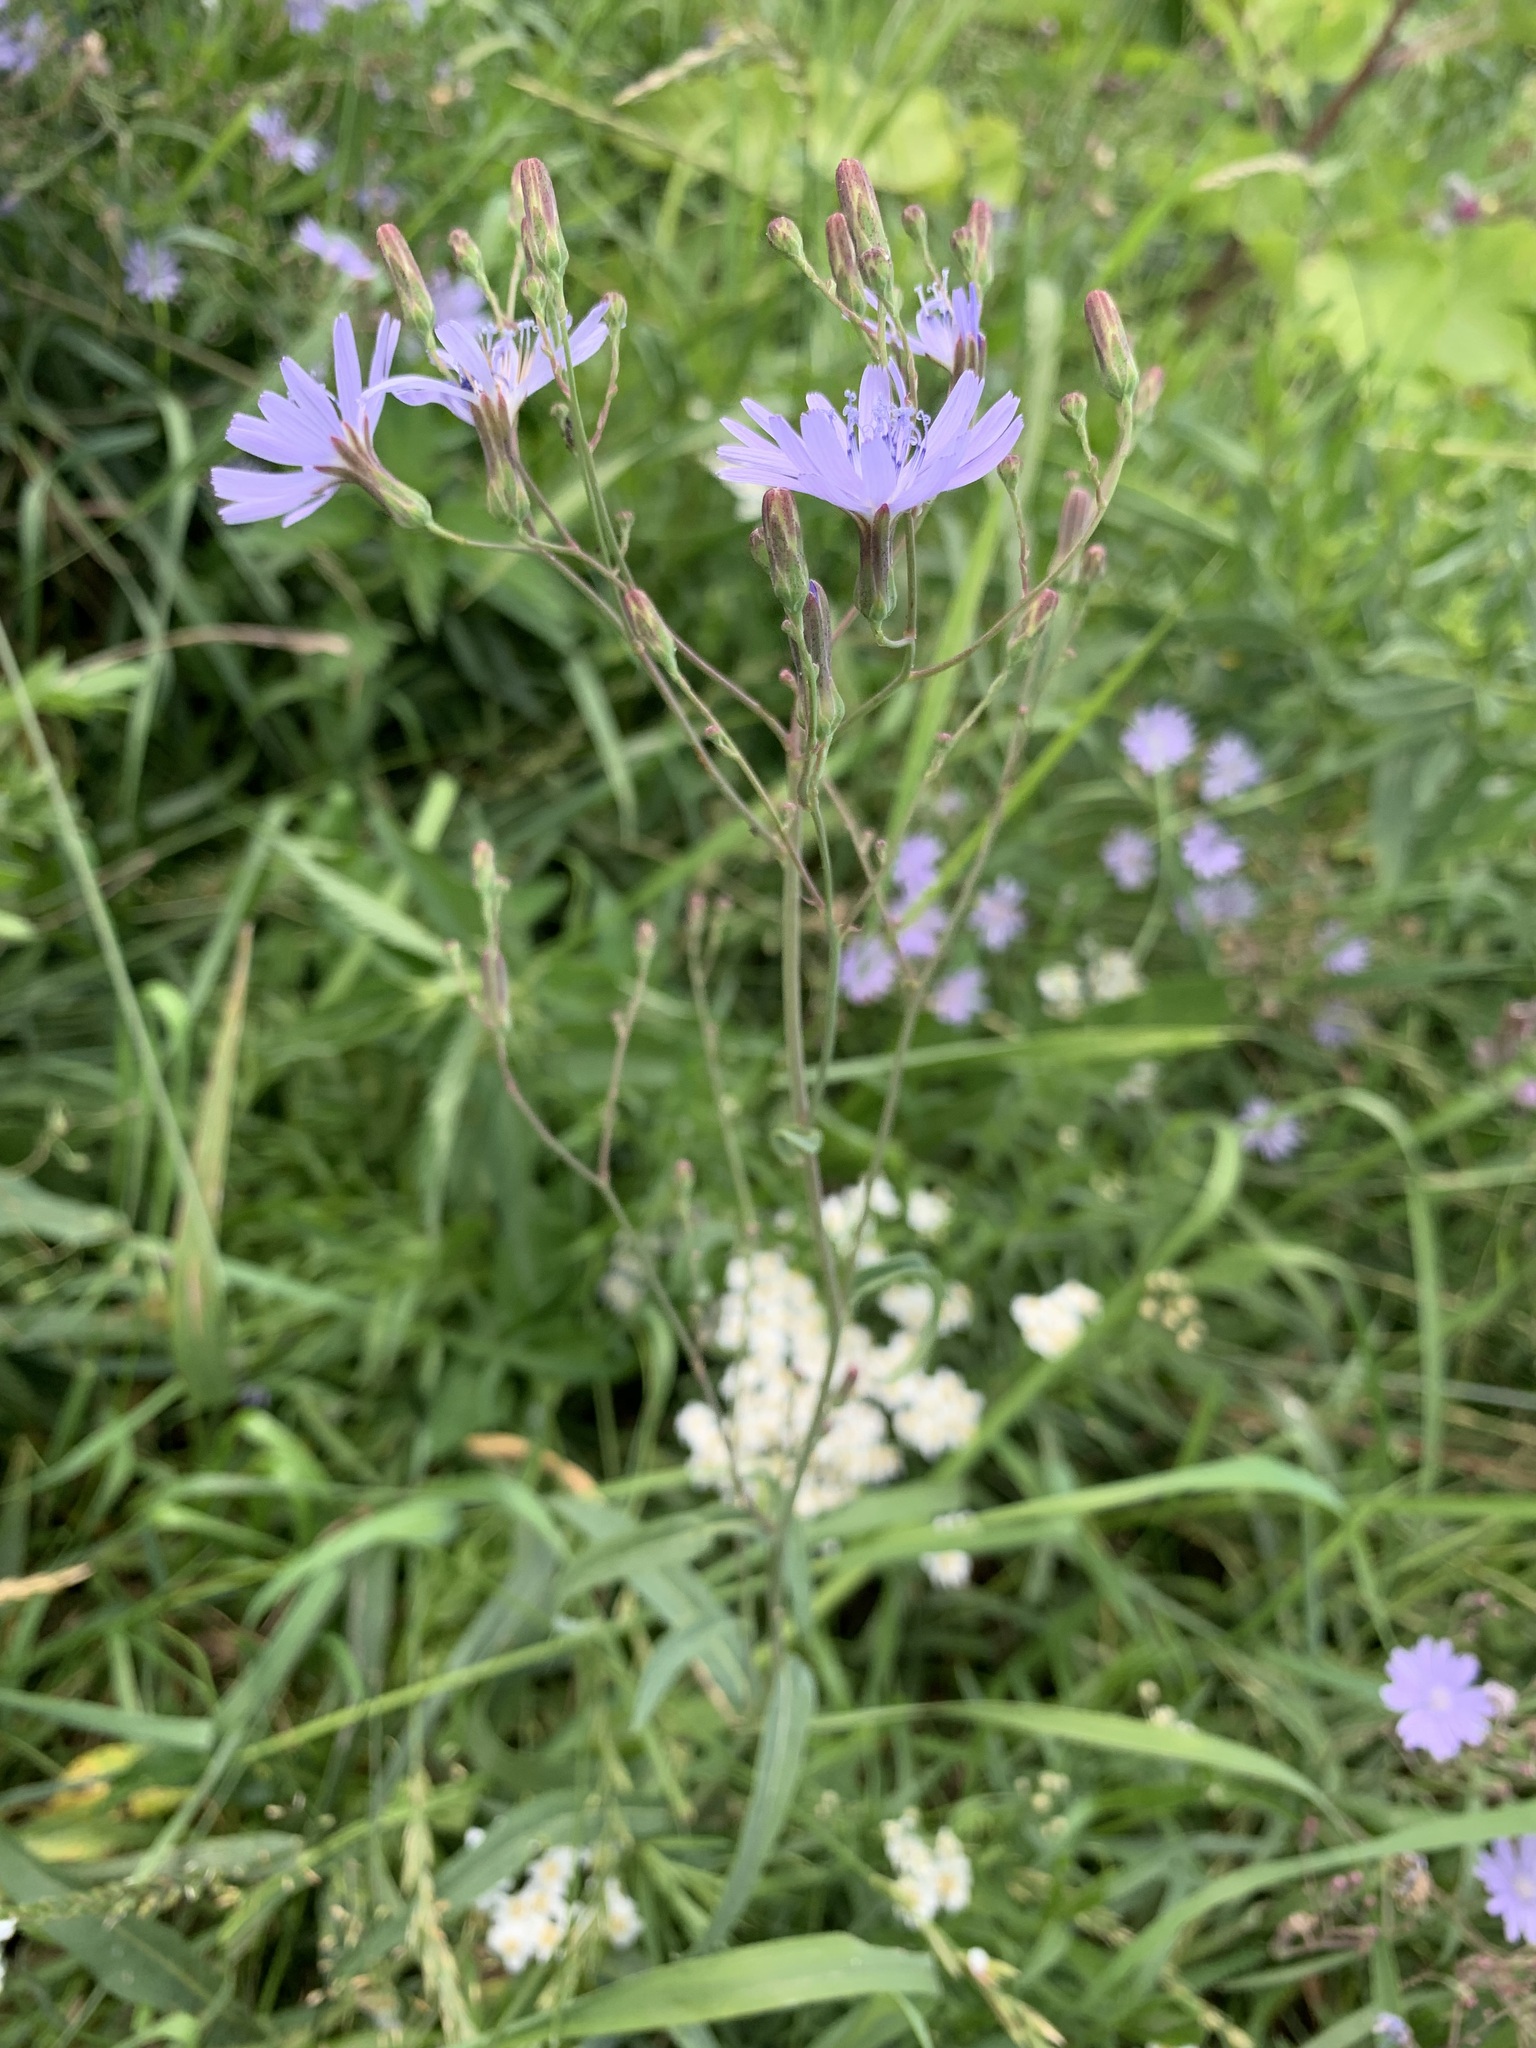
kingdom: Plantae
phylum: Tracheophyta
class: Magnoliopsida
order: Asterales
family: Asteraceae
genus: Lactuca
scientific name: Lactuca tatarica
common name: Blue lettuce
